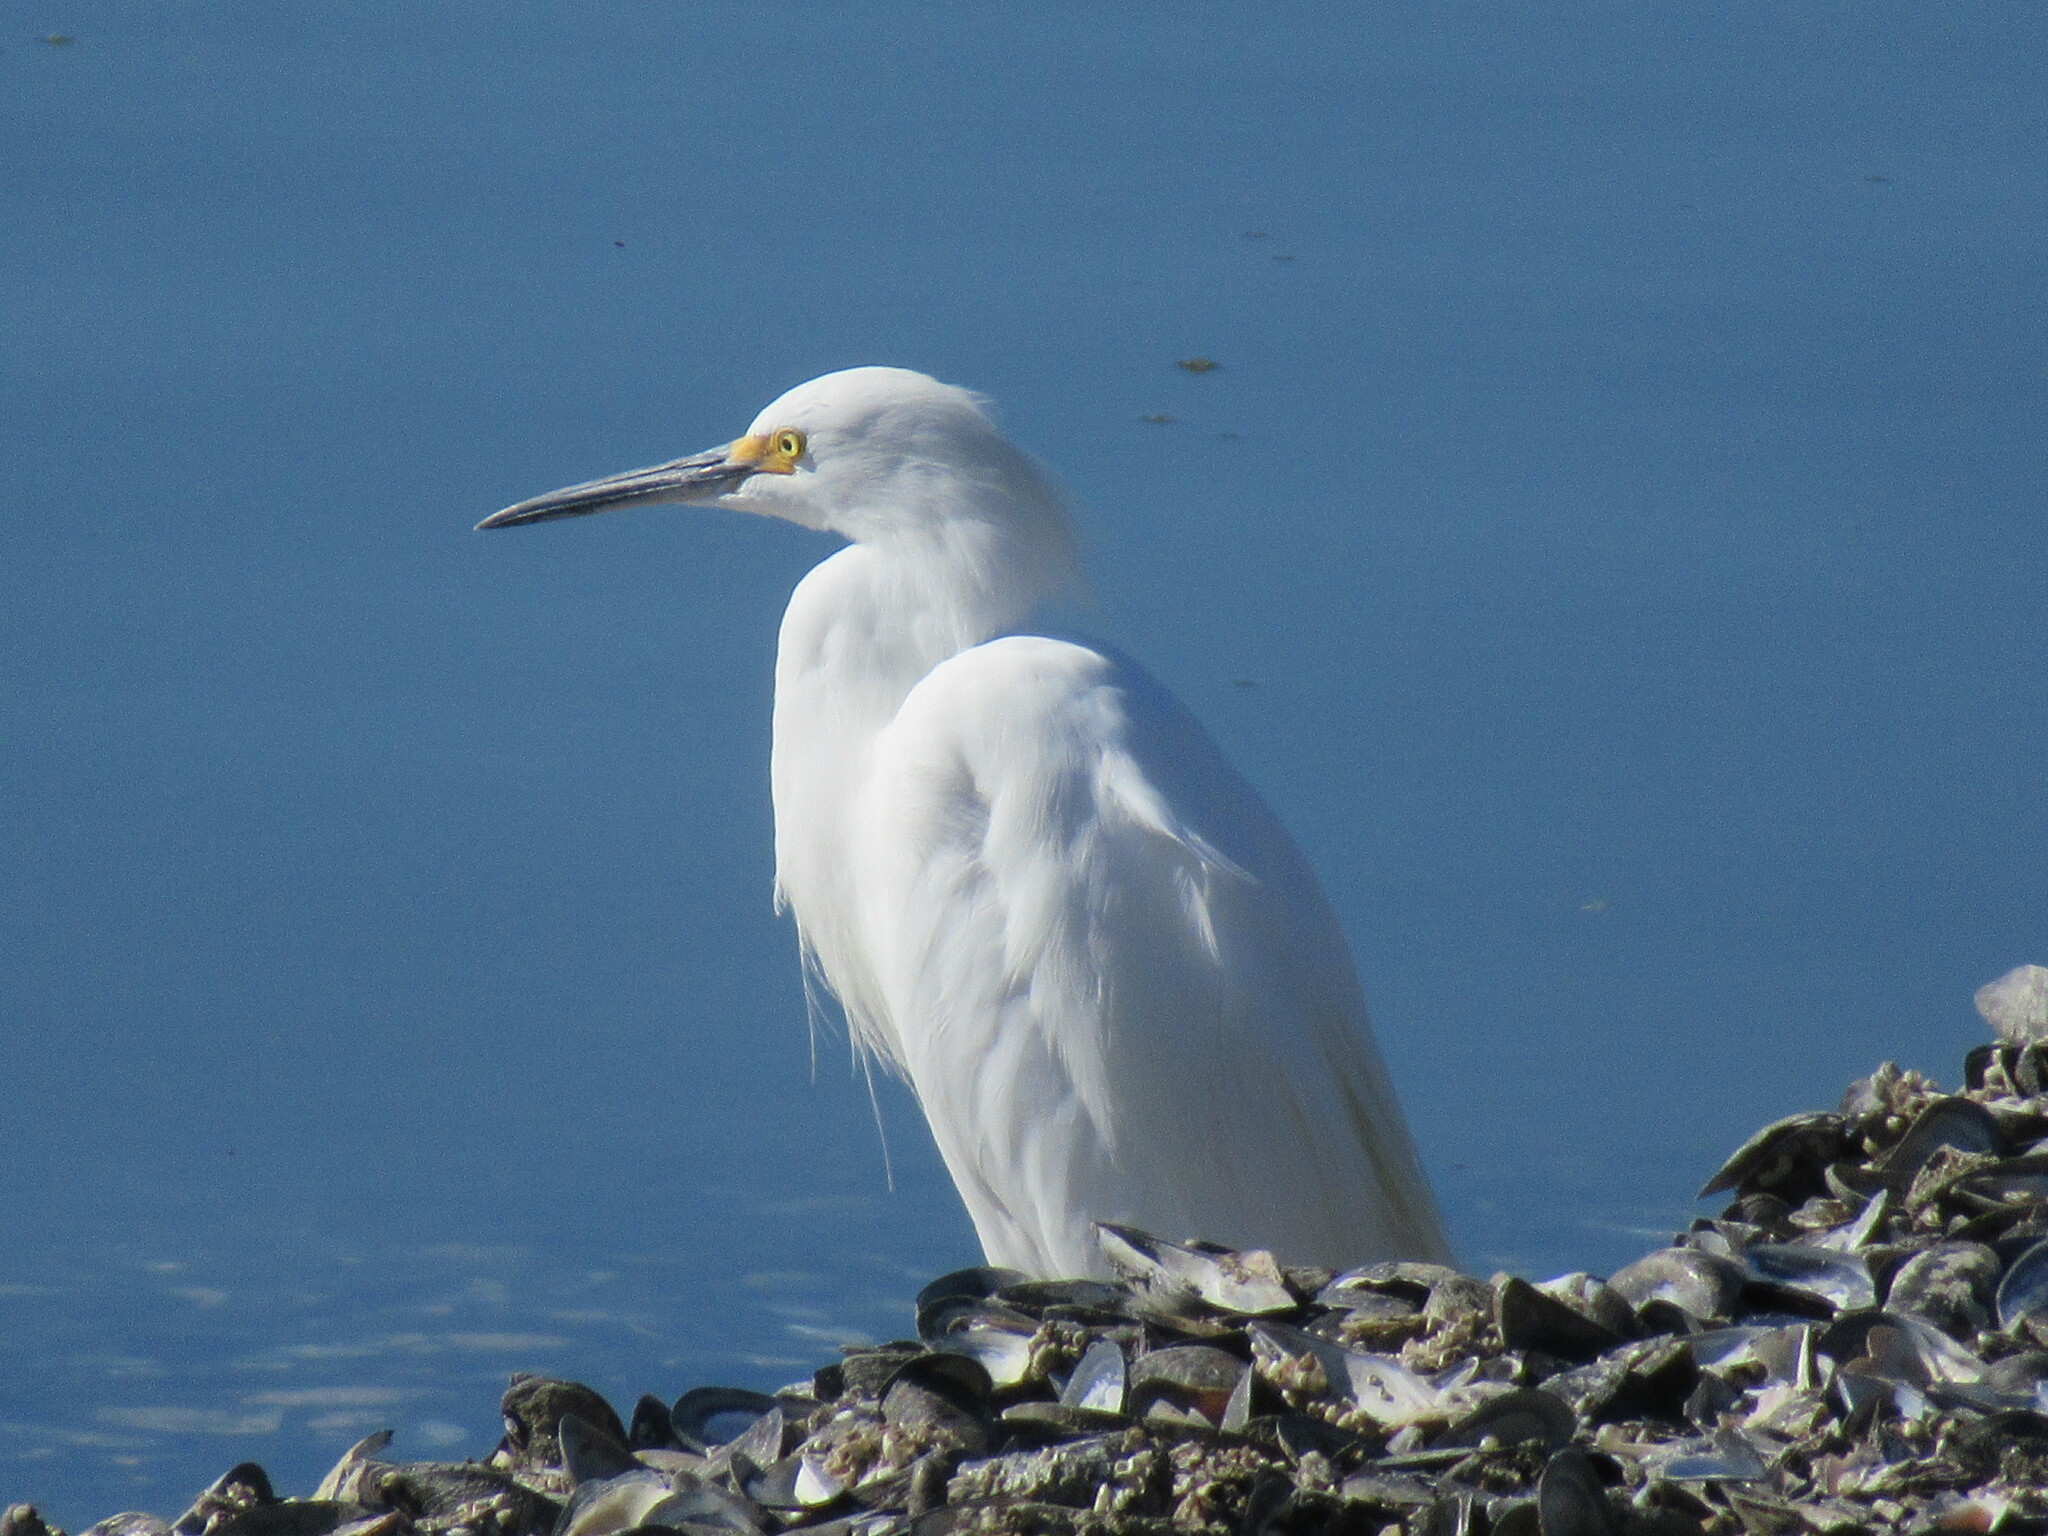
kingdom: Animalia
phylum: Chordata
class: Aves
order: Pelecaniformes
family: Ardeidae
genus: Egretta
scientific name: Egretta thula
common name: Snowy egret
